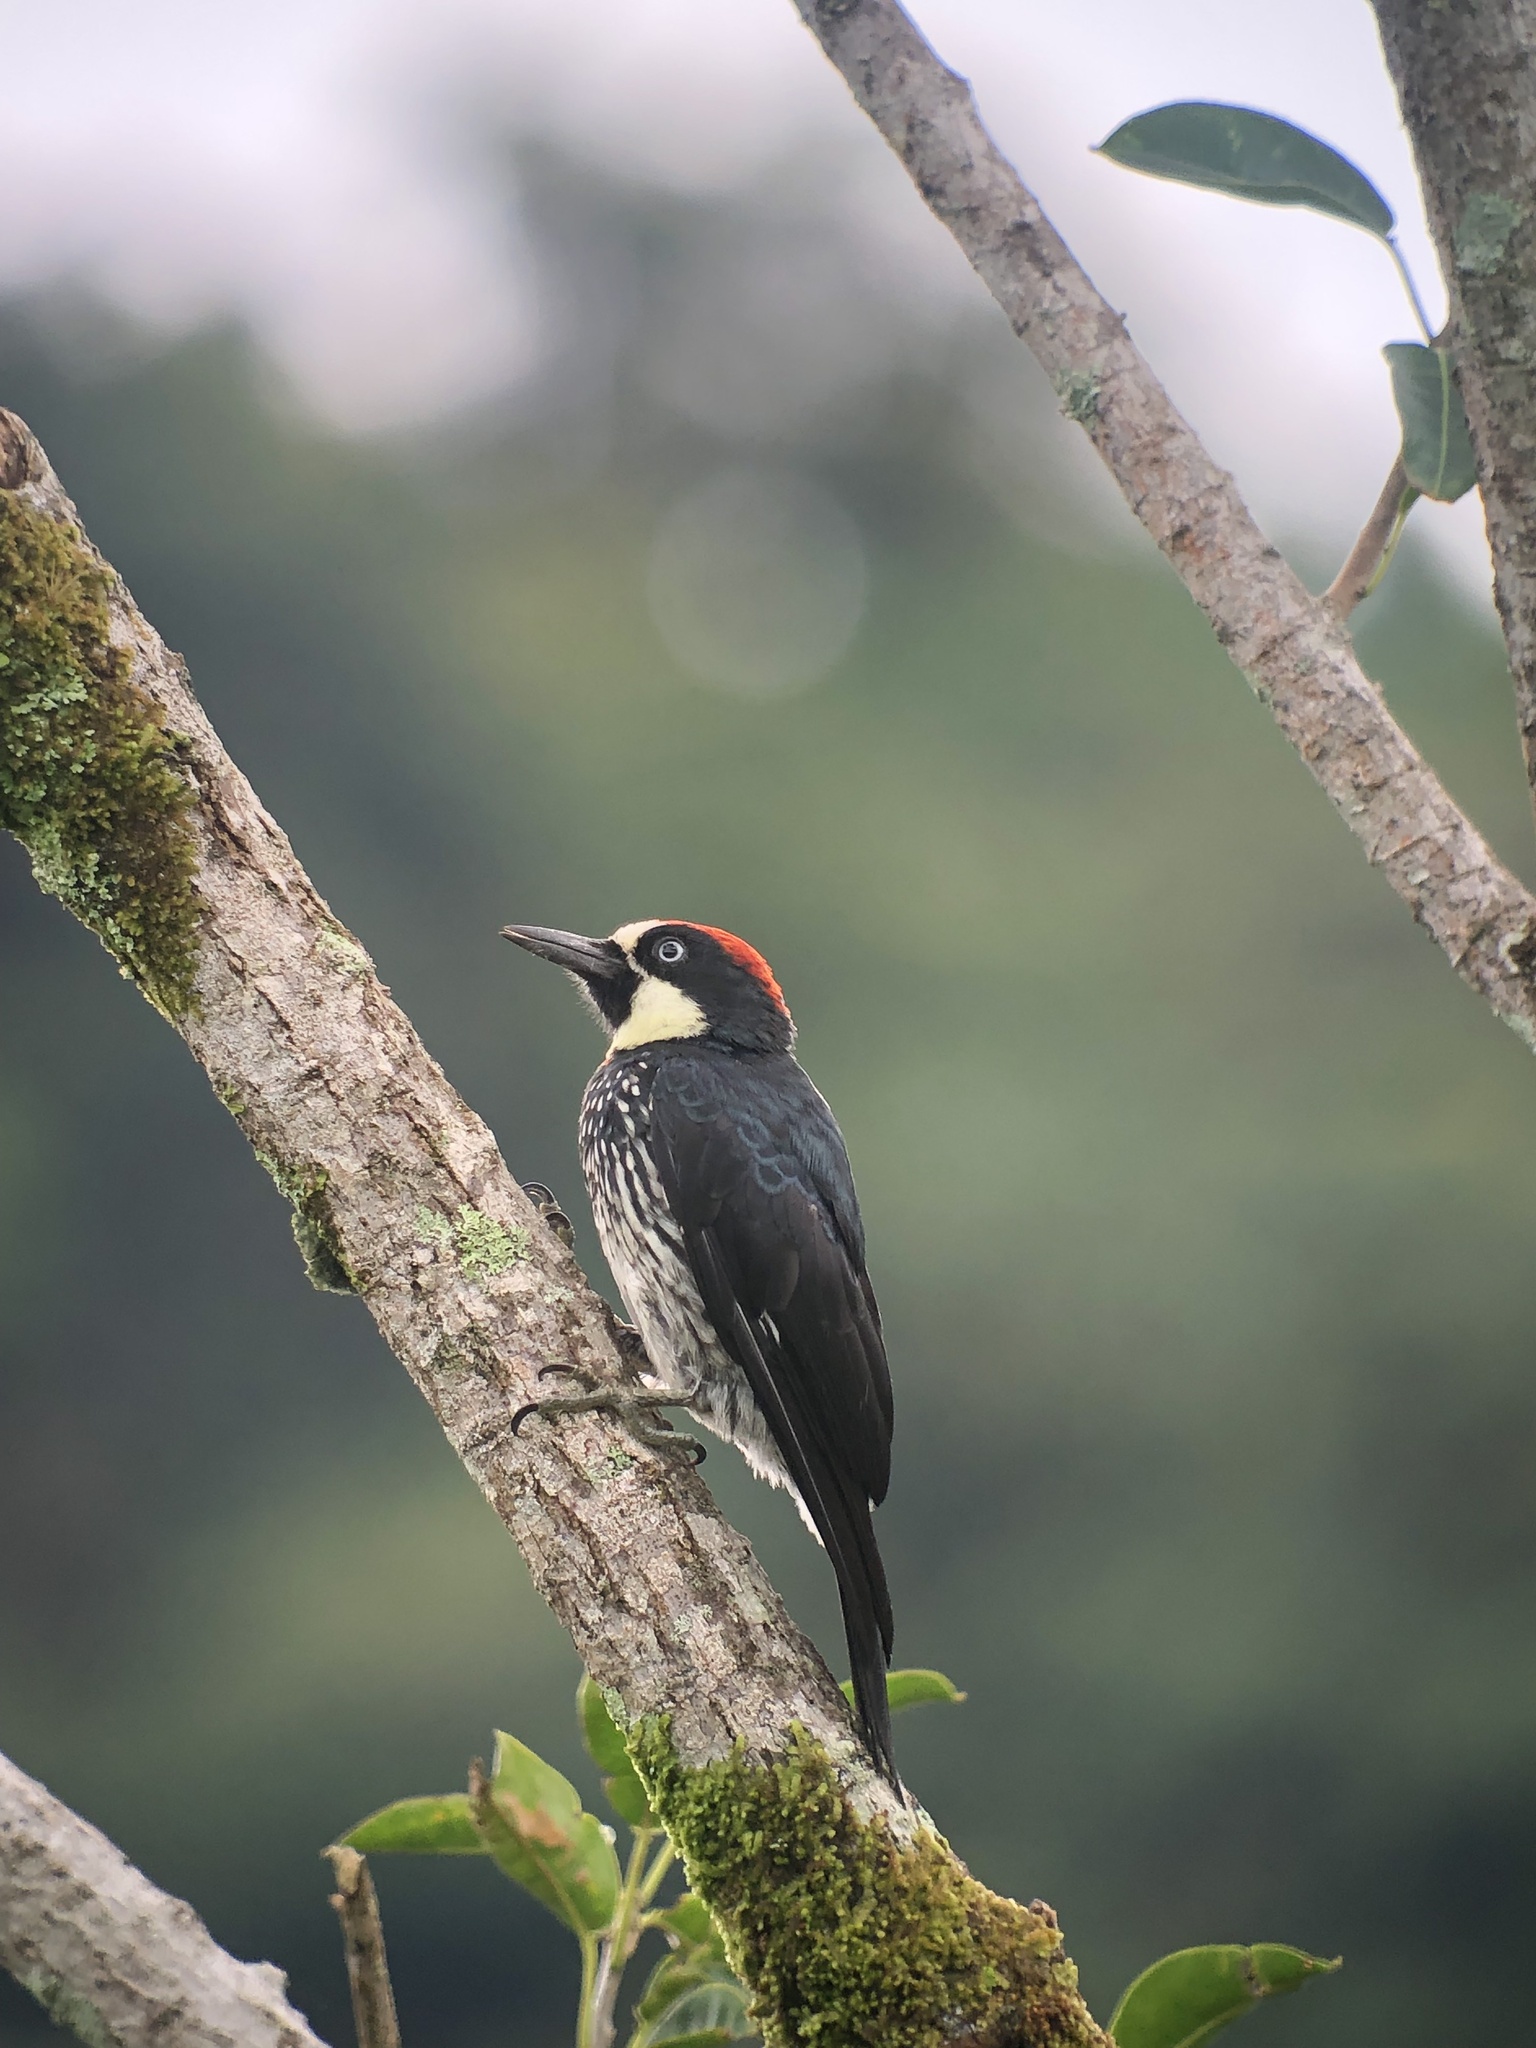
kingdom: Animalia
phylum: Chordata
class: Aves
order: Piciformes
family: Picidae
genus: Melanerpes
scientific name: Melanerpes formicivorus
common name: Acorn woodpecker
